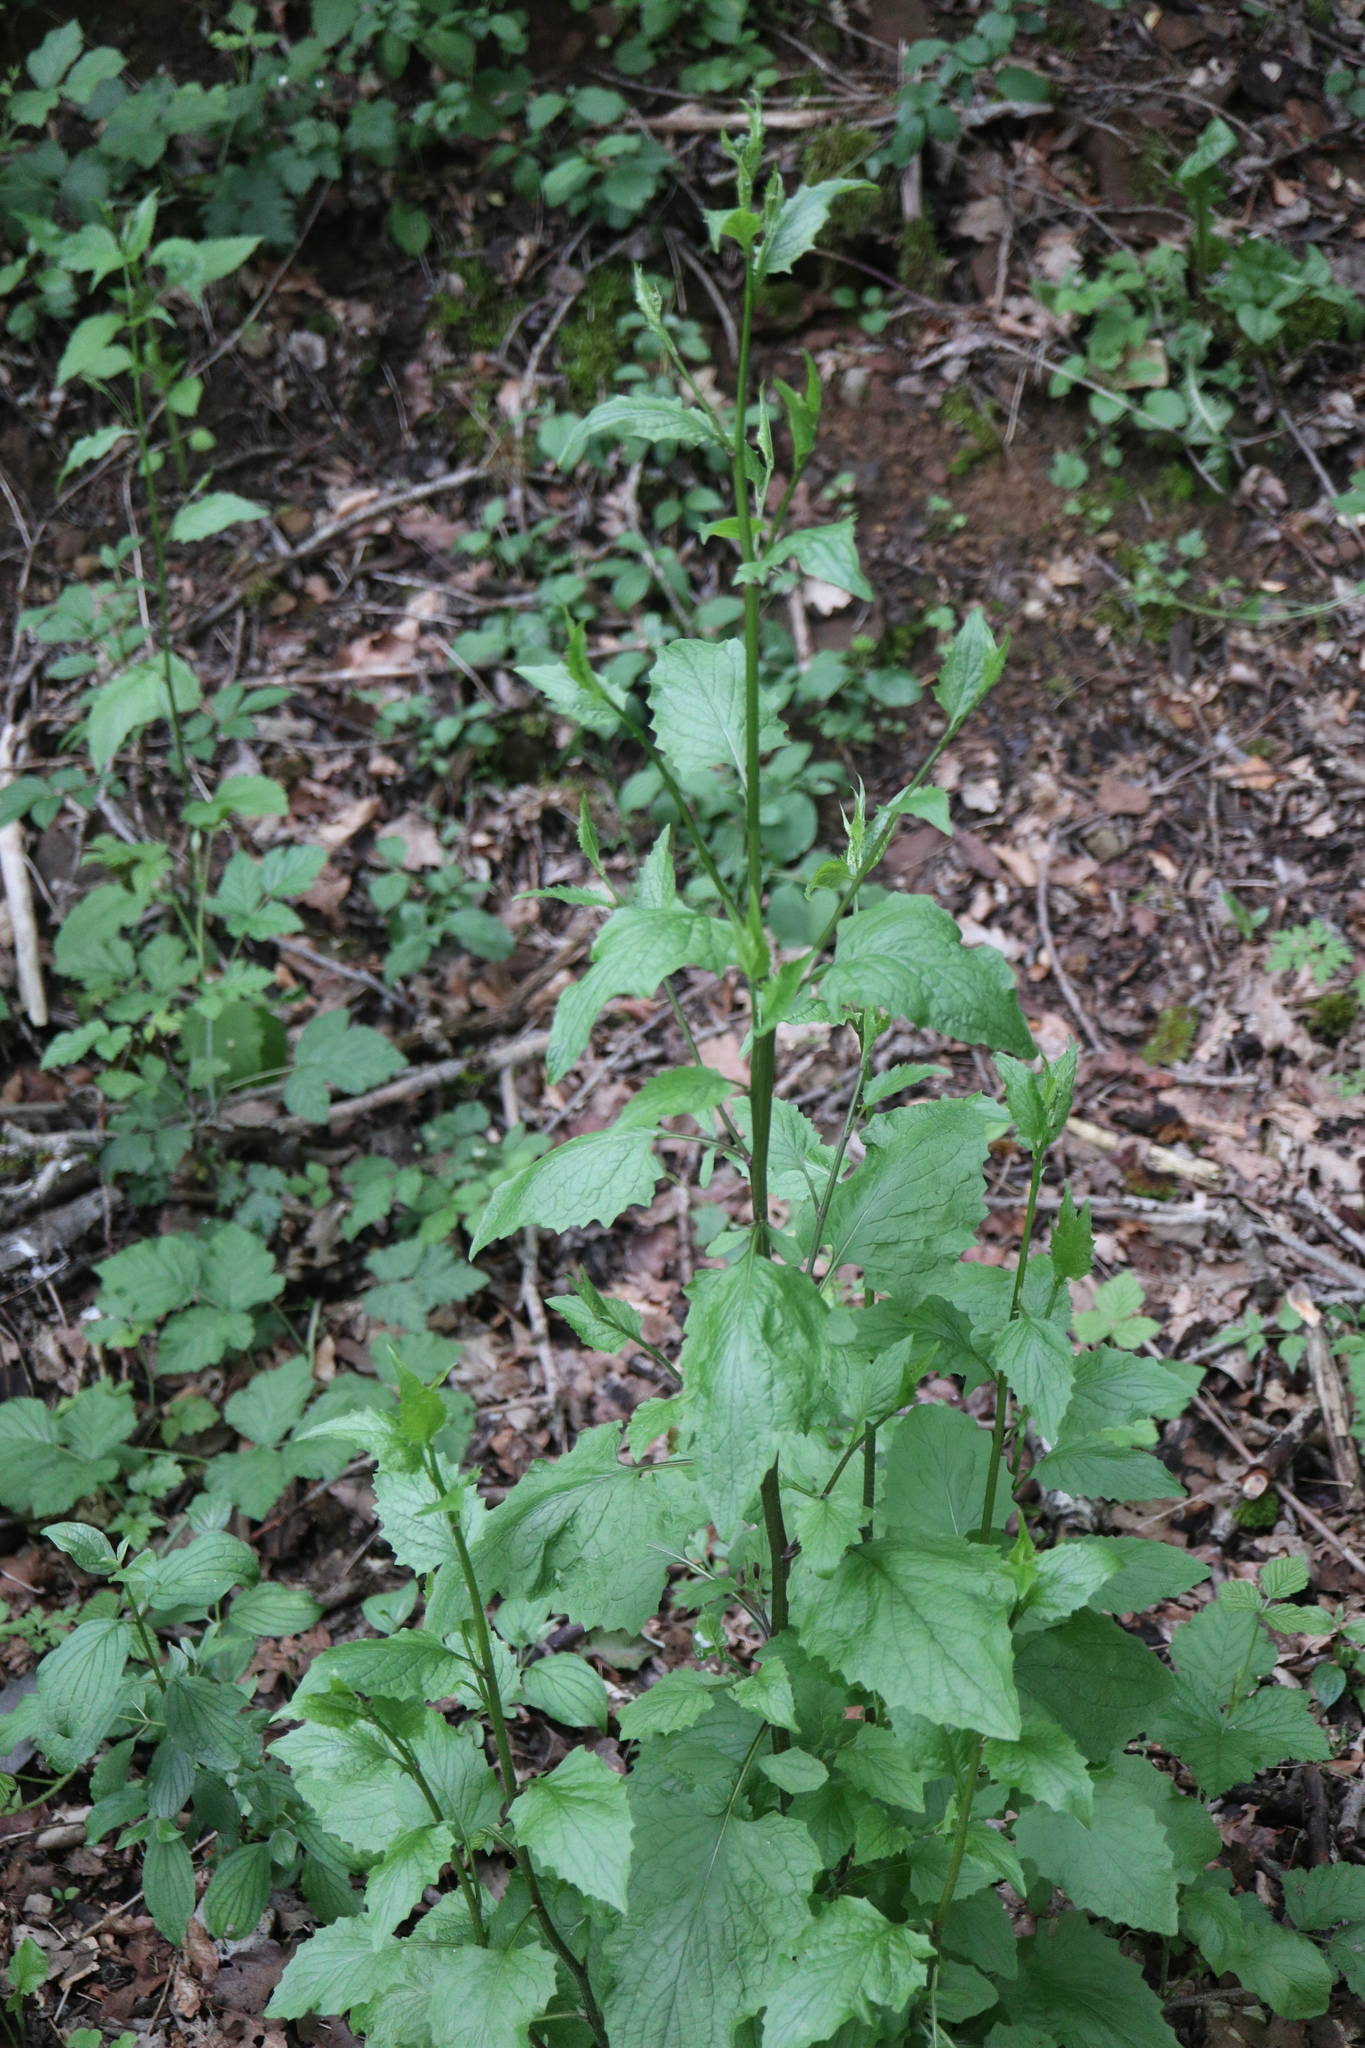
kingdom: Plantae
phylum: Tracheophyta
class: Magnoliopsida
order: Asterales
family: Asteraceae
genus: Lapsana
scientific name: Lapsana communis
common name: Nipplewort
